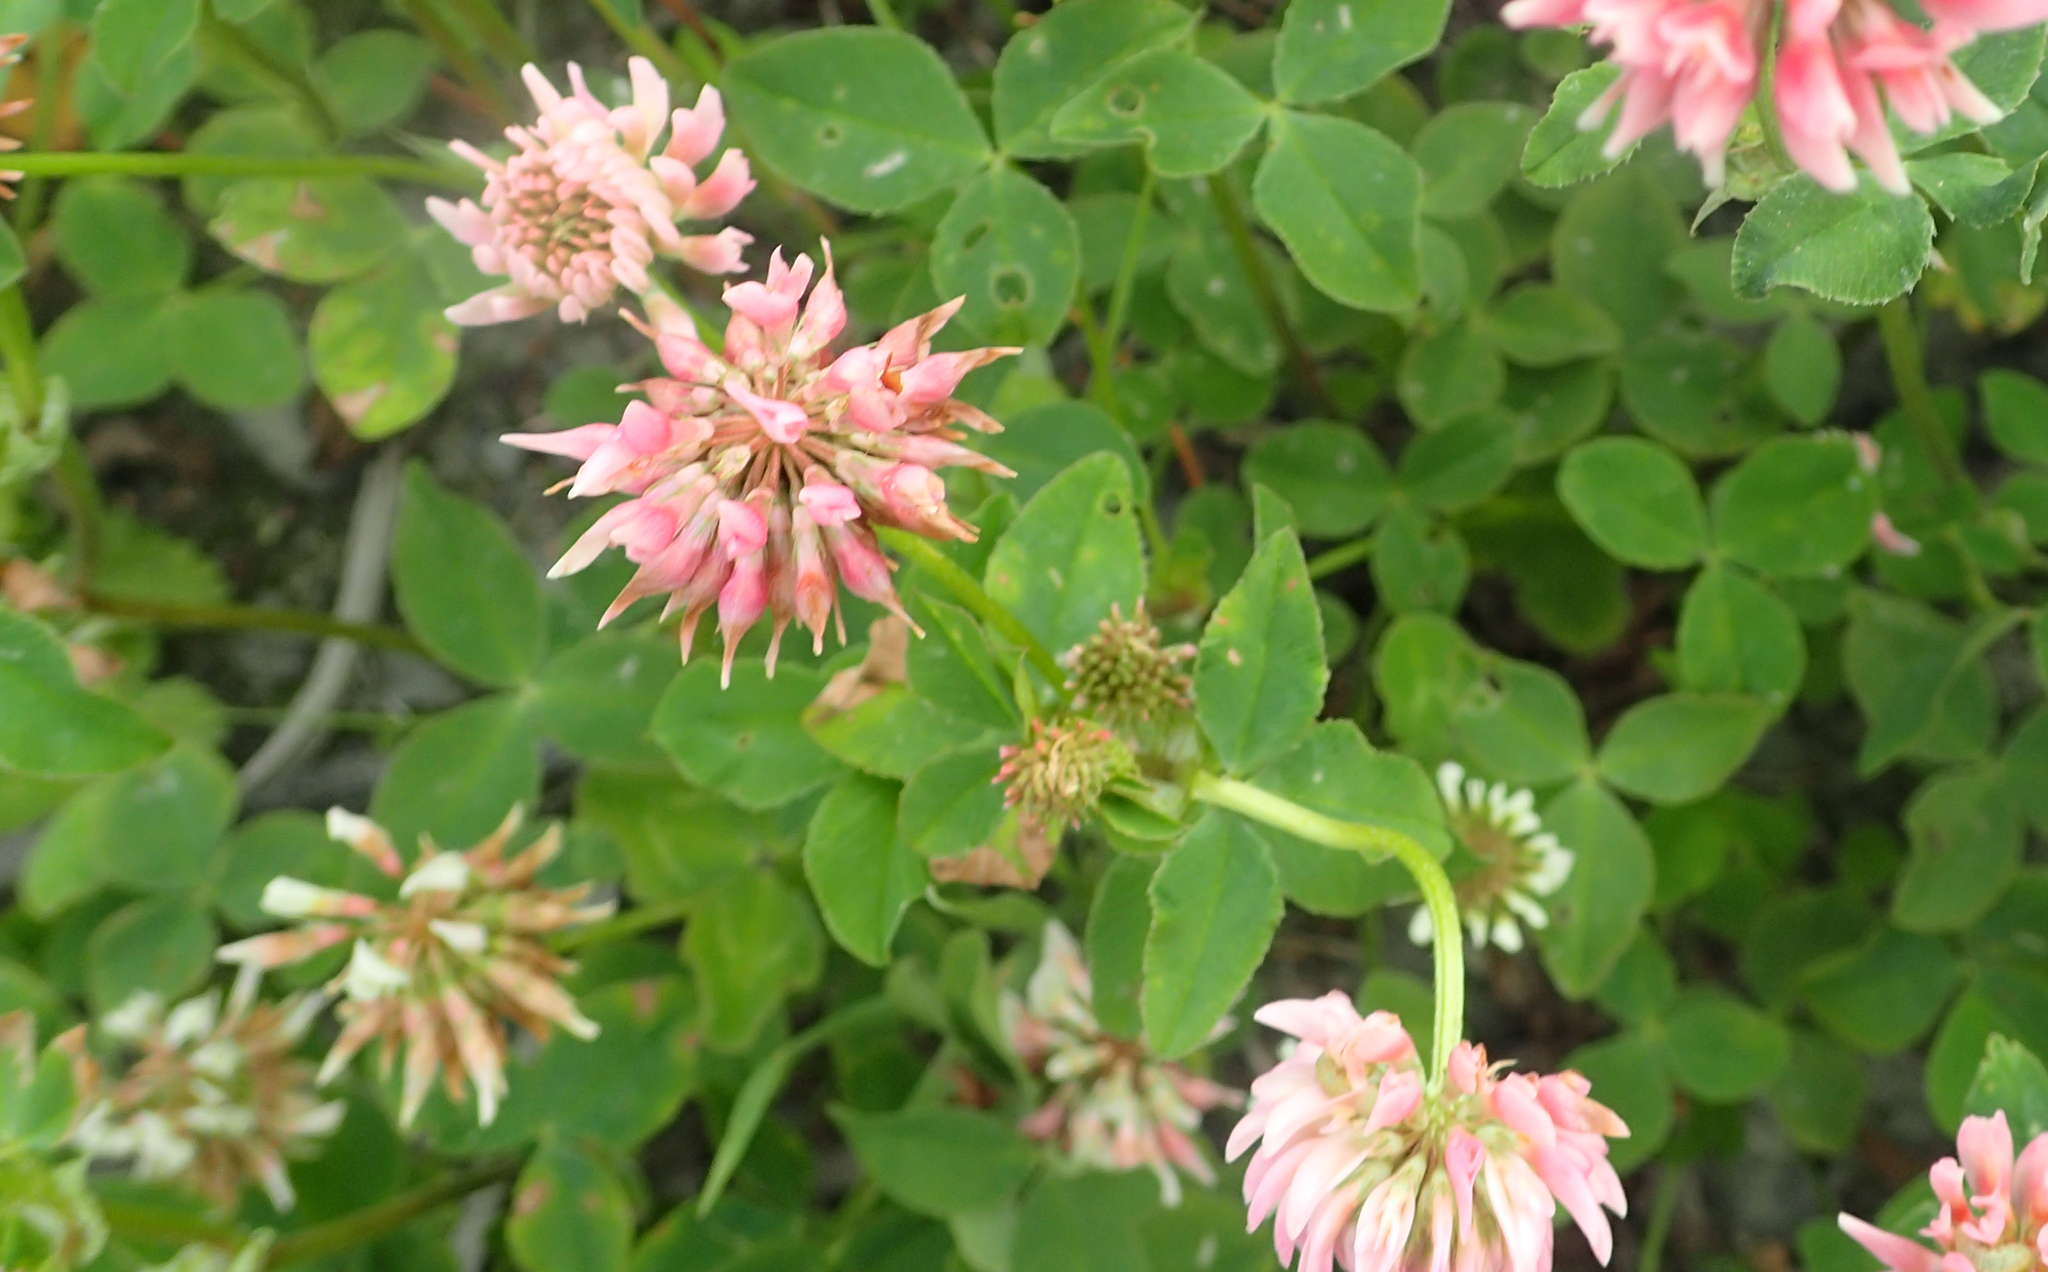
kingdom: Plantae
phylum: Tracheophyta
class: Magnoliopsida
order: Fabales
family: Fabaceae
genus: Trifolium
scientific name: Trifolium hybridum
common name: Alsike clover
